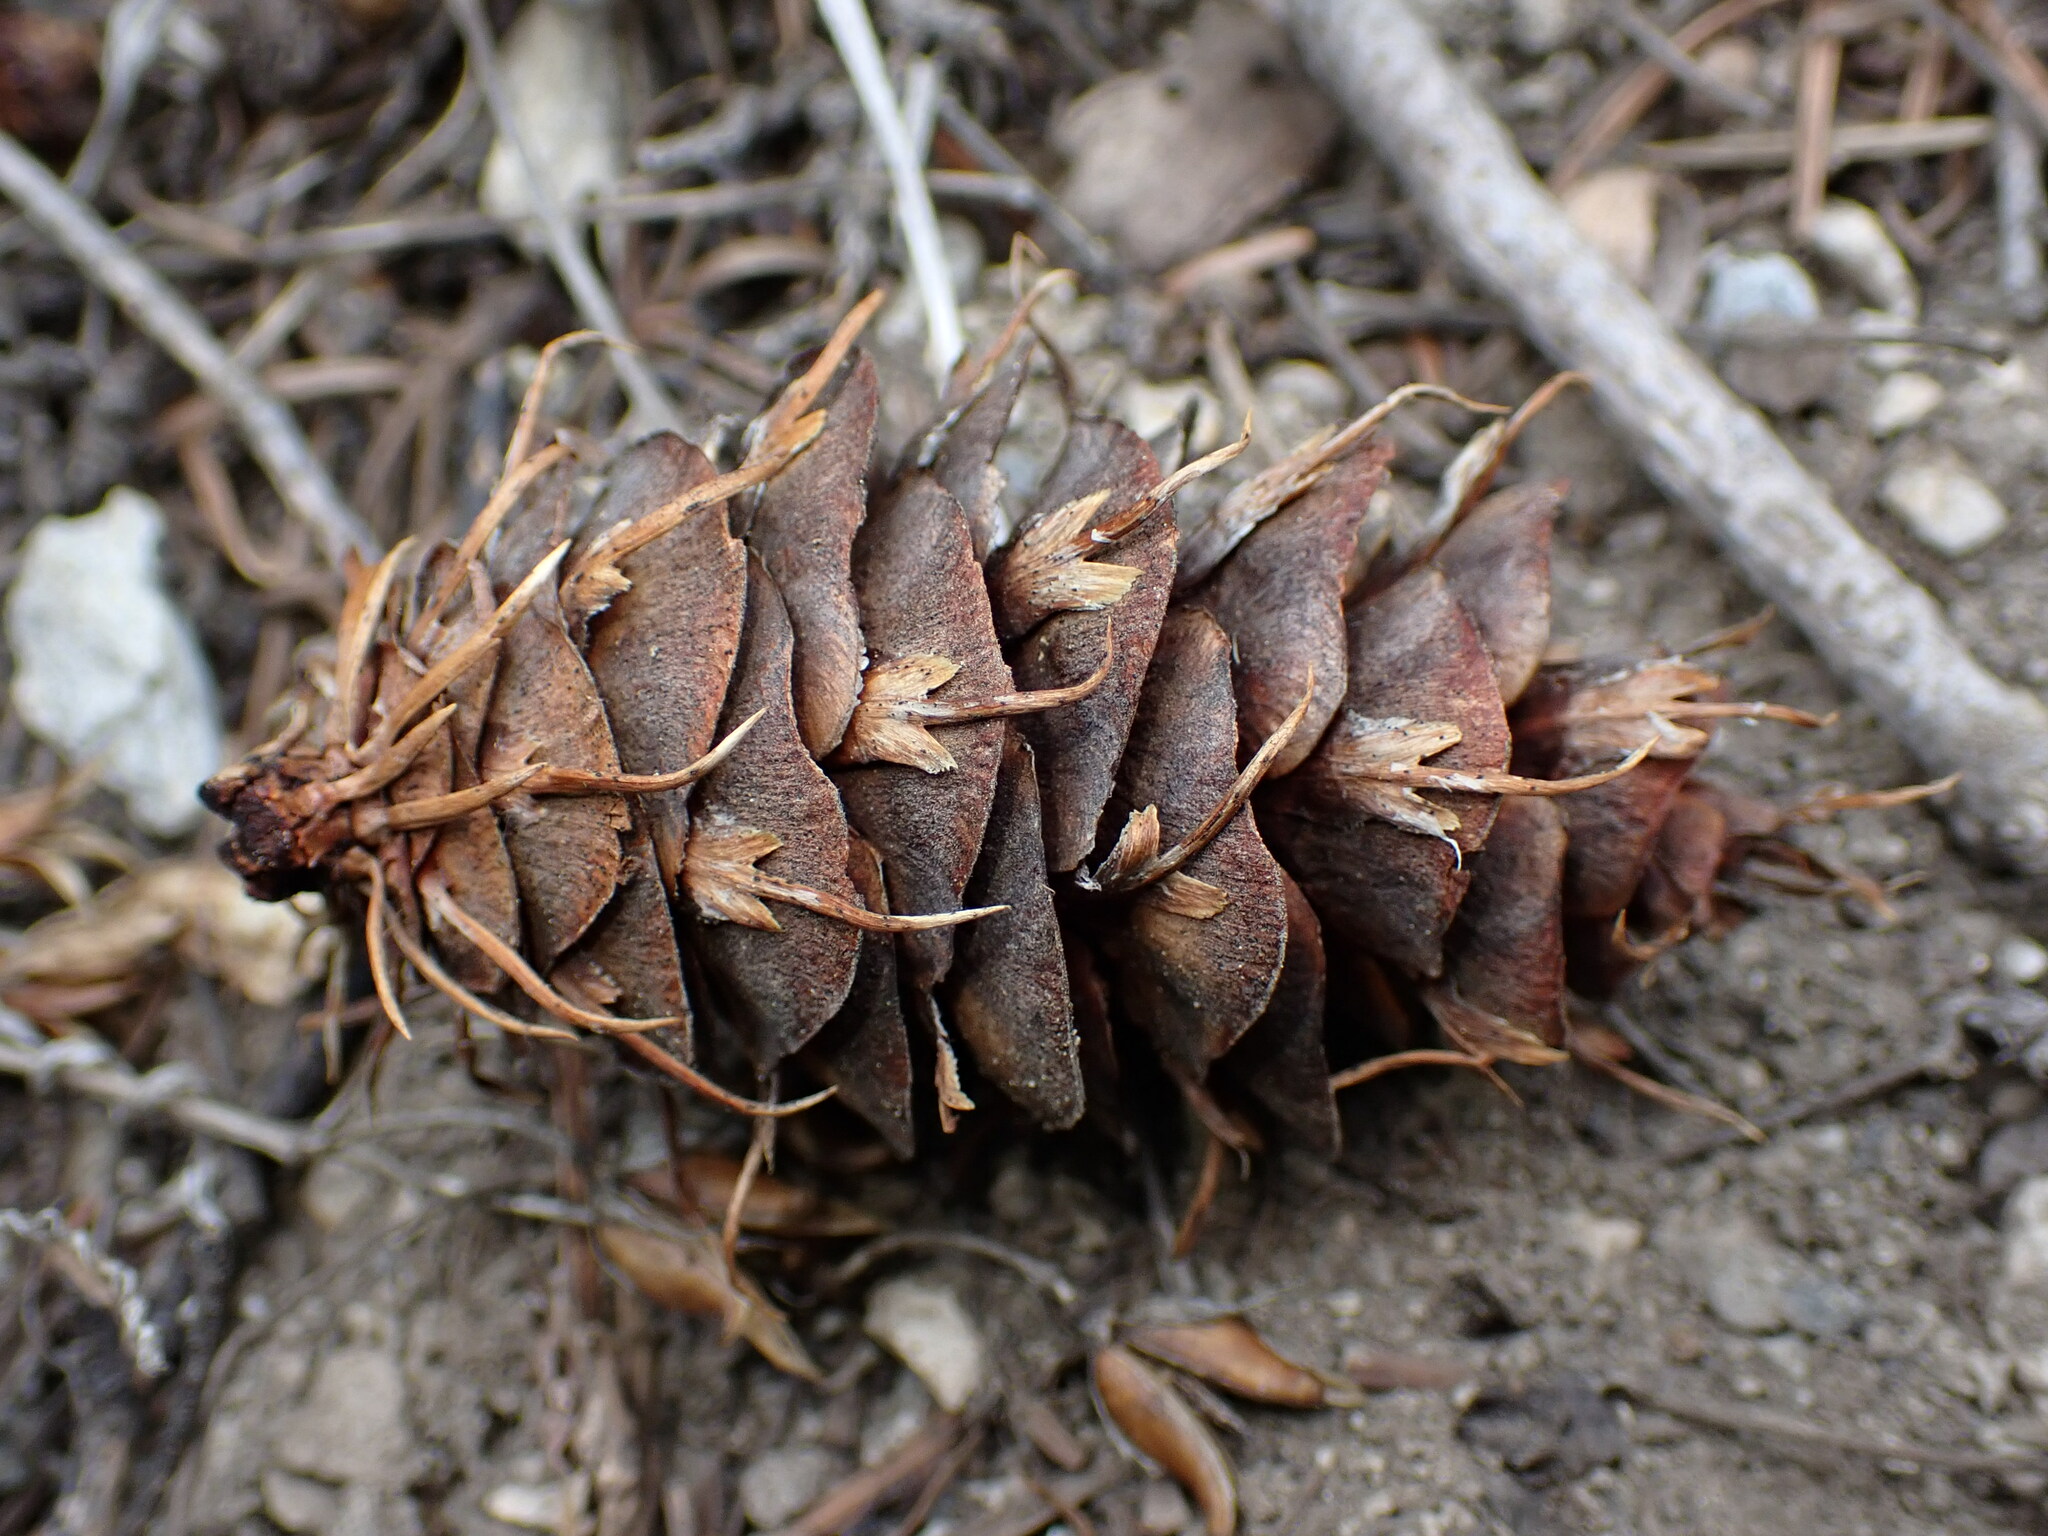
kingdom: Plantae
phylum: Tracheophyta
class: Pinopsida
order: Pinales
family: Pinaceae
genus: Pseudotsuga
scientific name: Pseudotsuga menziesii
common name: Douglas fir
